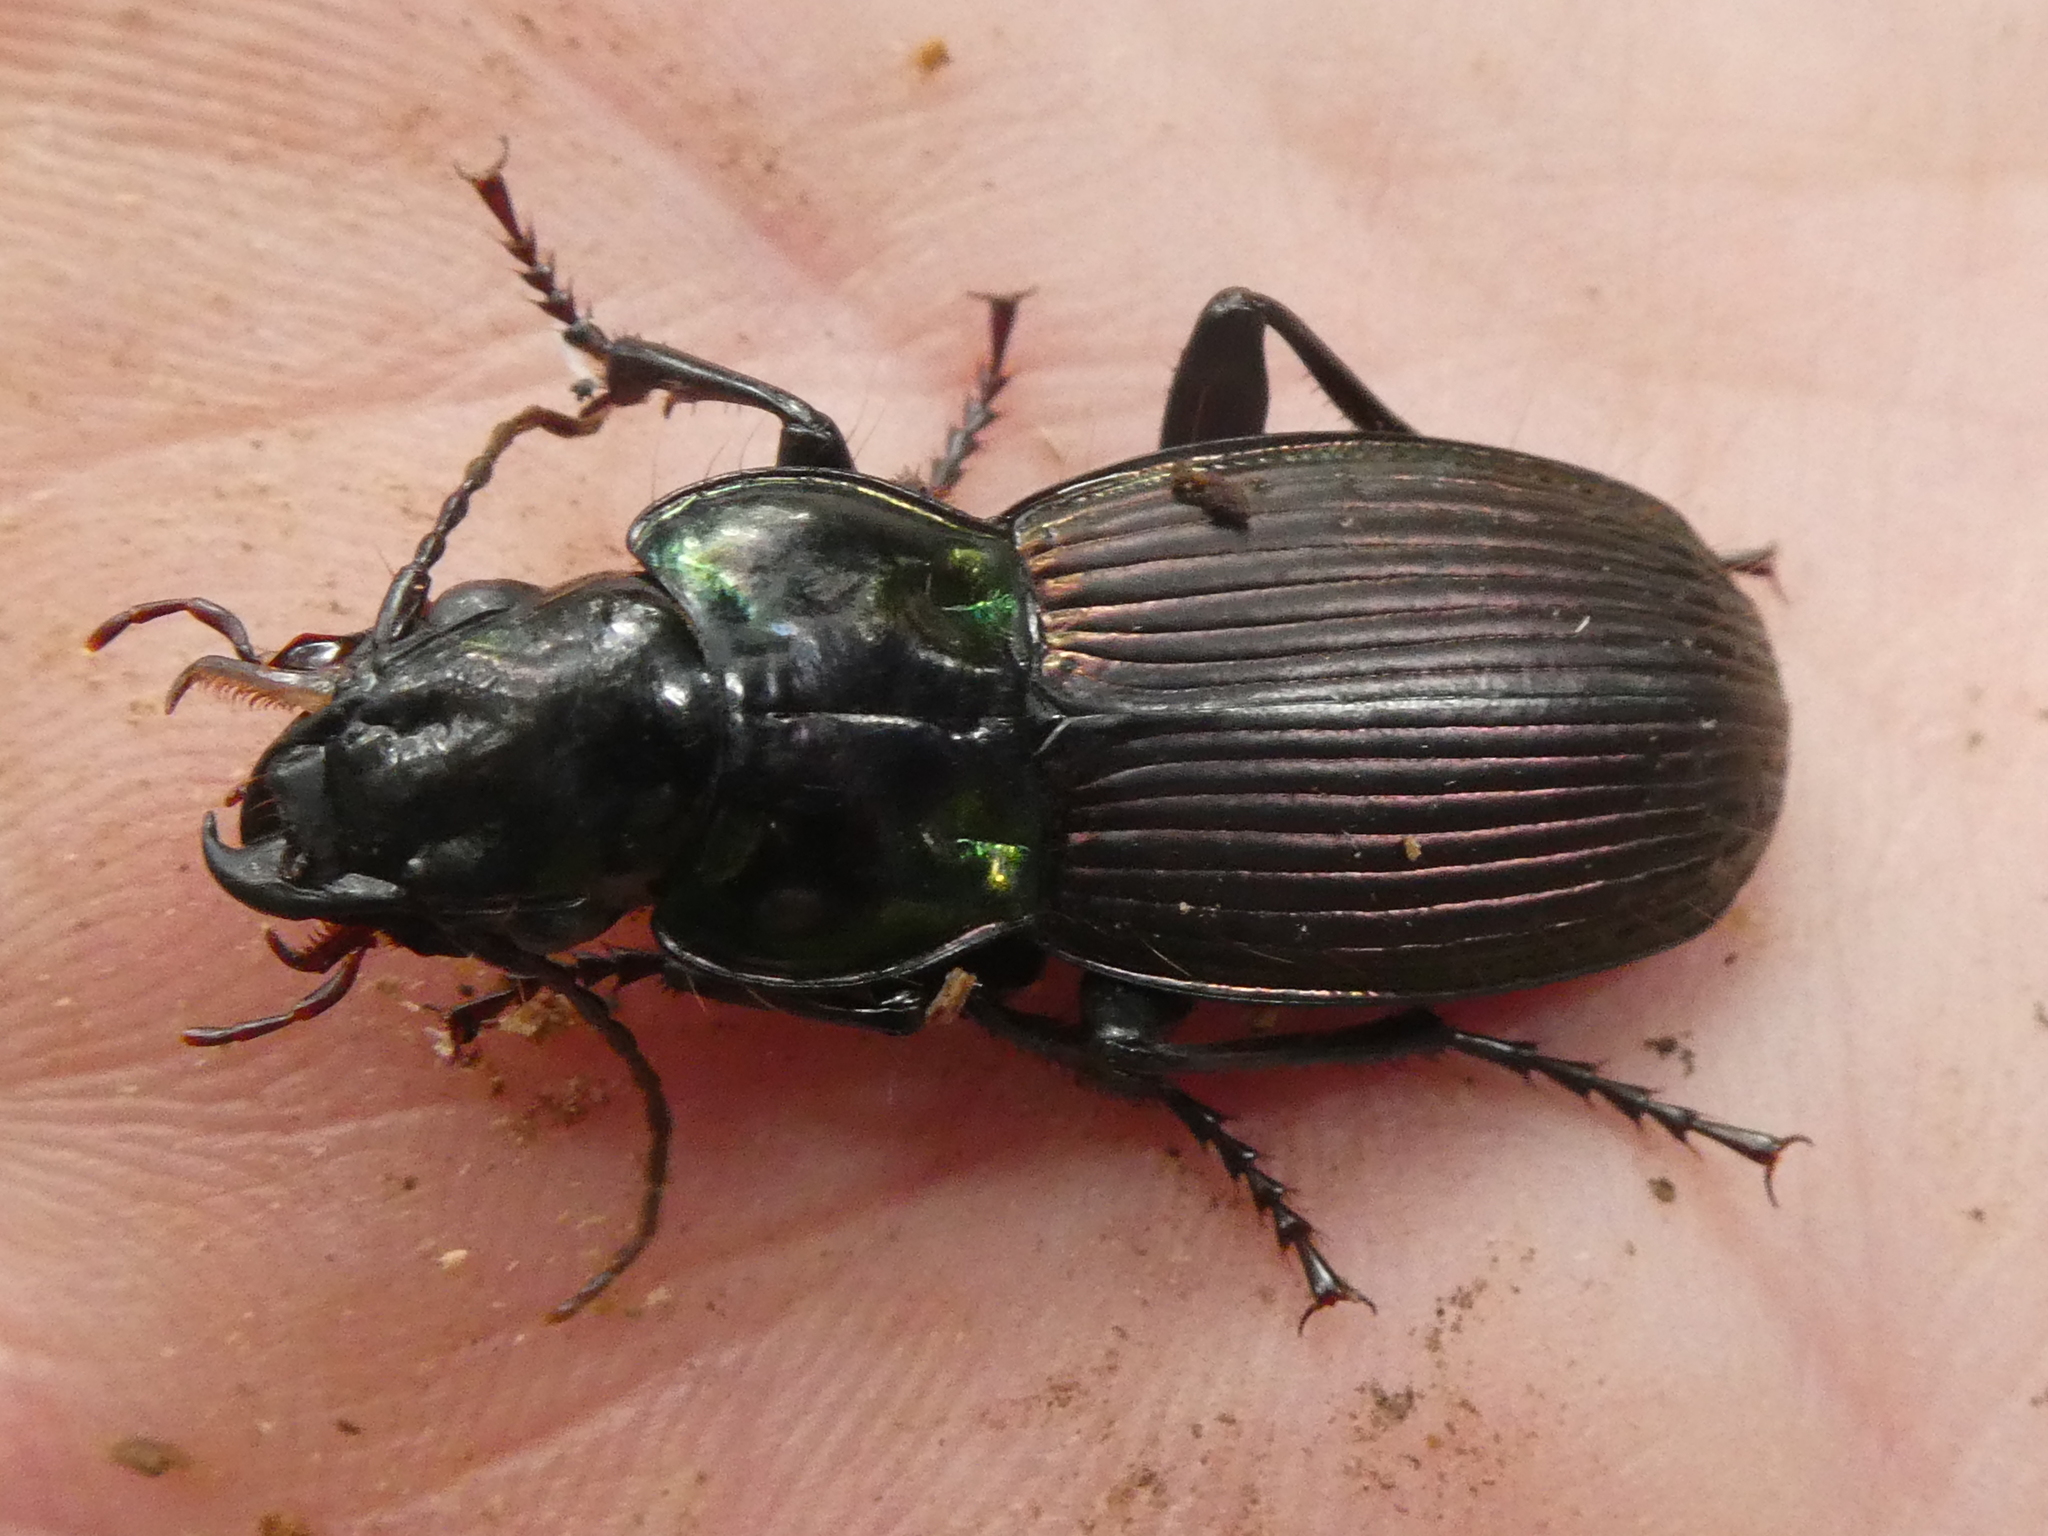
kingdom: Animalia
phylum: Arthropoda
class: Insecta
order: Coleoptera
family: Carabidae
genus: Megadromus
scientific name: Megadromus speciosus
